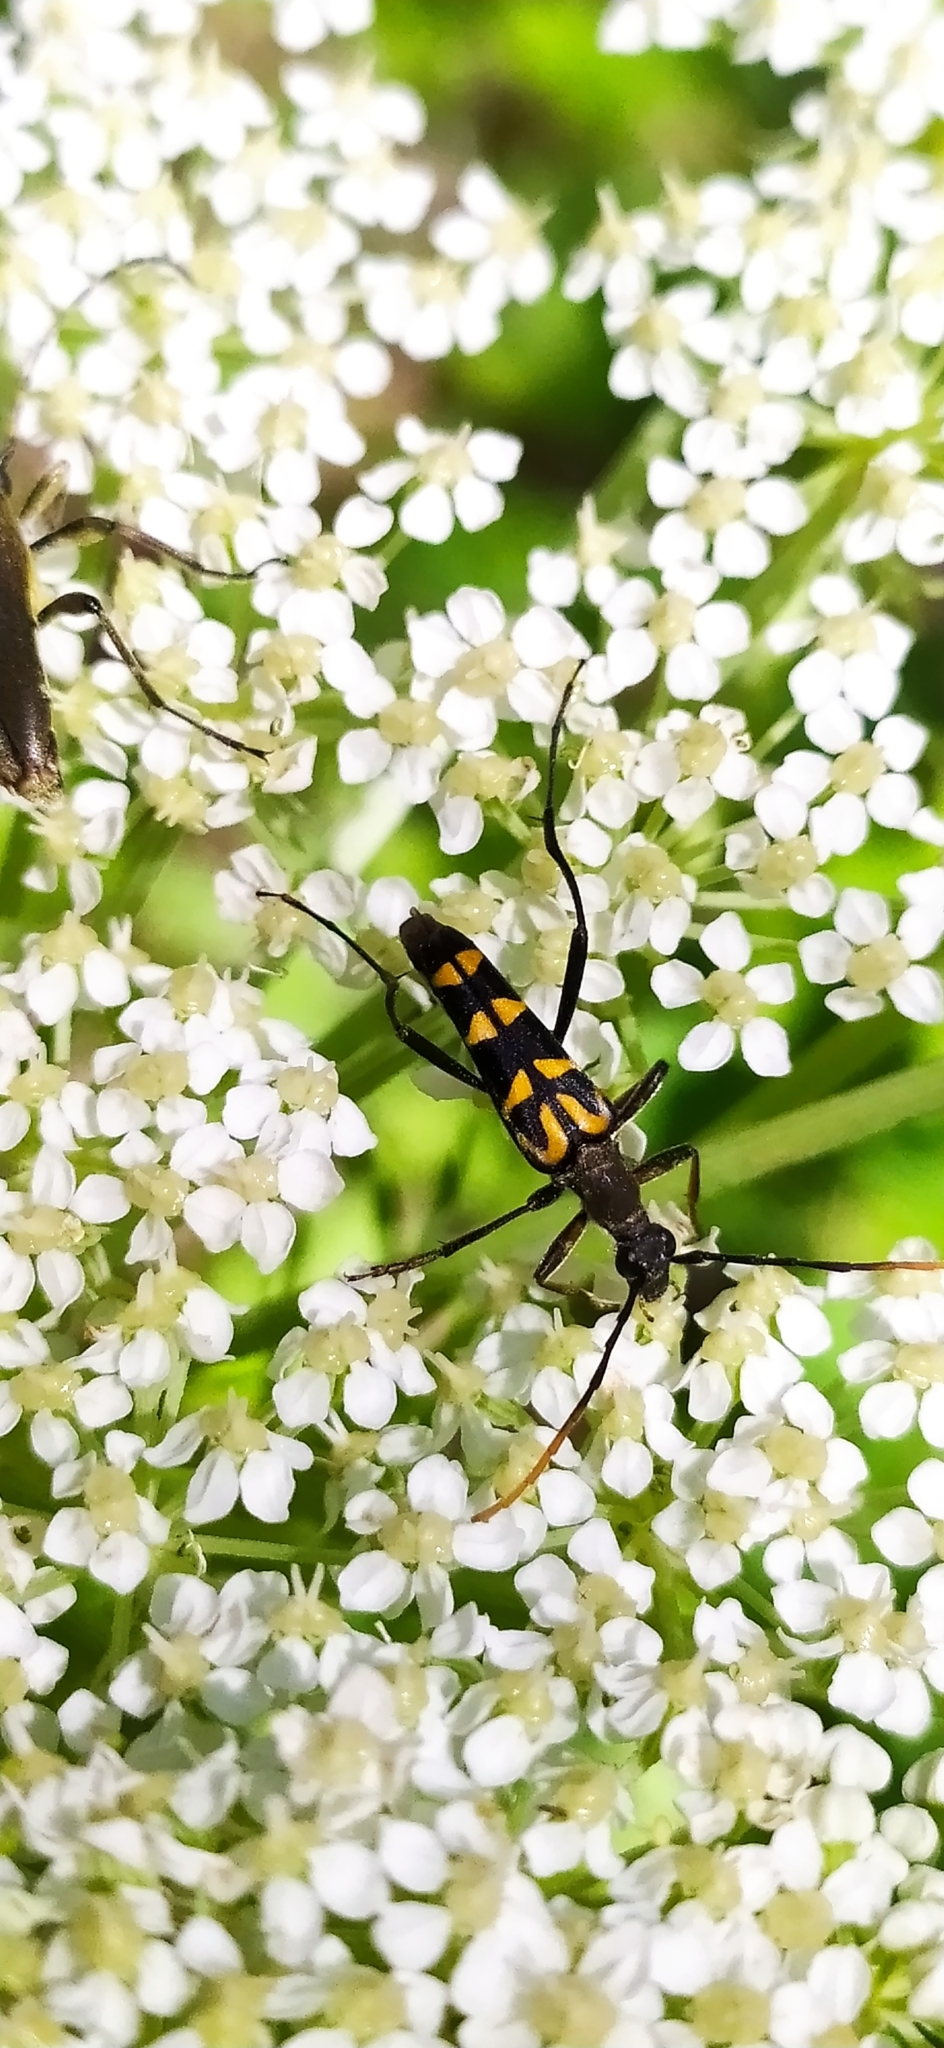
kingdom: Animalia
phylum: Arthropoda
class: Insecta
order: Coleoptera
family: Cerambycidae
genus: Leptura
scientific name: Leptura annularis
